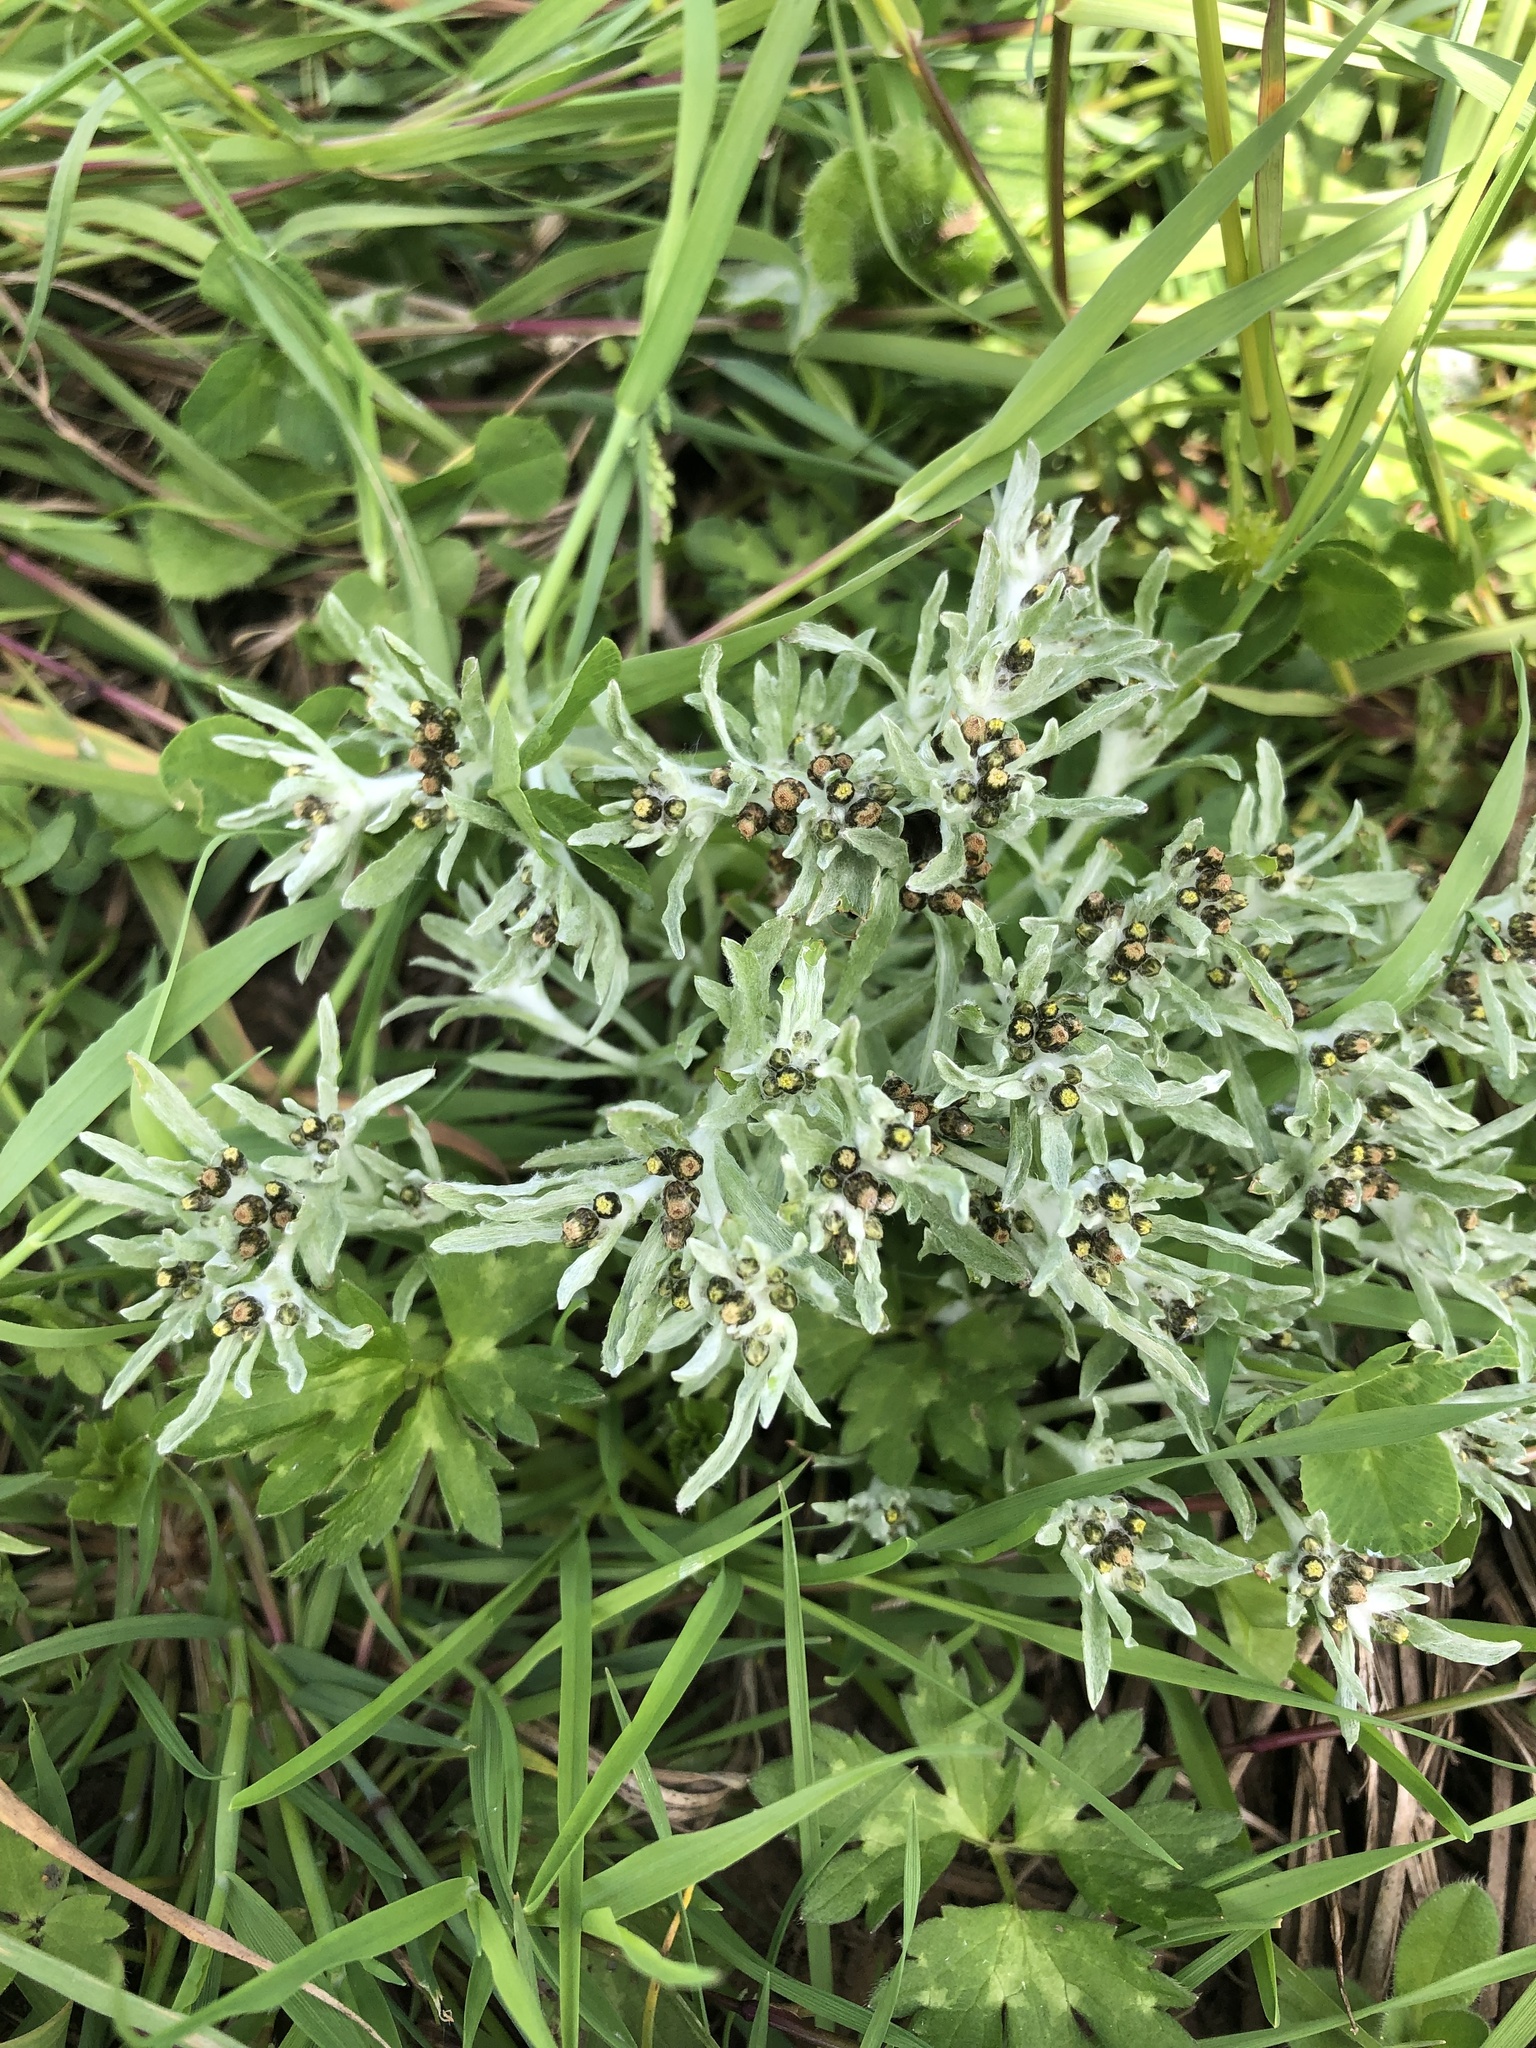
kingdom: Plantae
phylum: Tracheophyta
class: Magnoliopsida
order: Asterales
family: Asteraceae
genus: Gnaphalium
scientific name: Gnaphalium uliginosum
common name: Marsh cudweed
